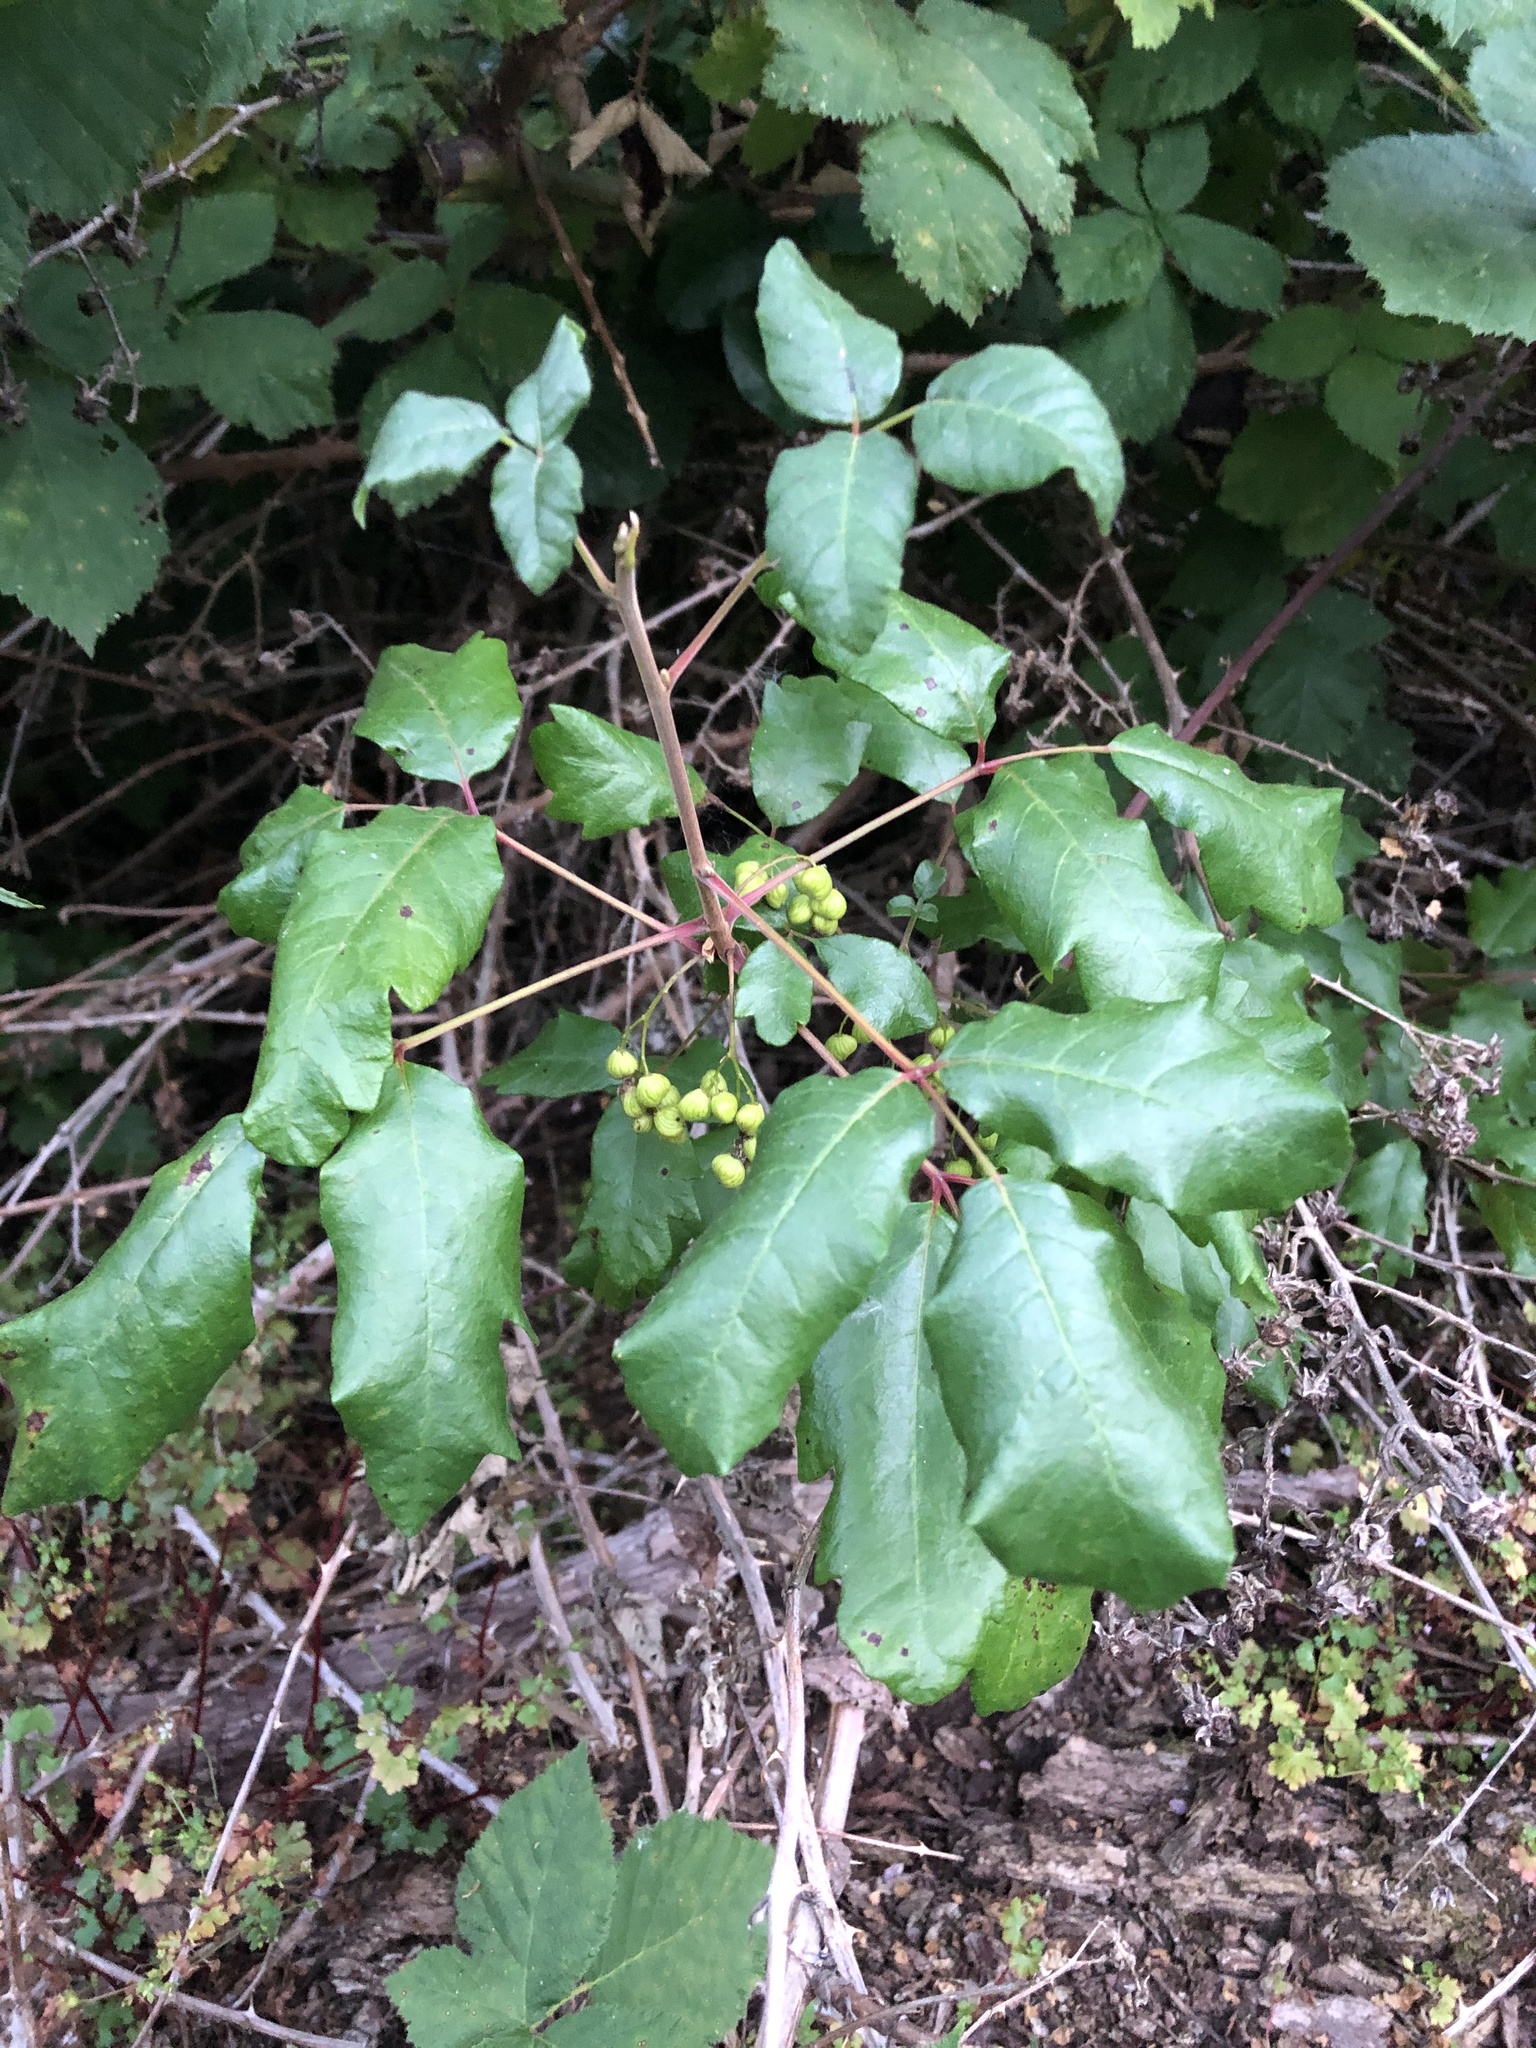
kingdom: Plantae
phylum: Tracheophyta
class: Magnoliopsida
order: Sapindales
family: Anacardiaceae
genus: Toxicodendron
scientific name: Toxicodendron diversilobum
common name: Pacific poison-oak
